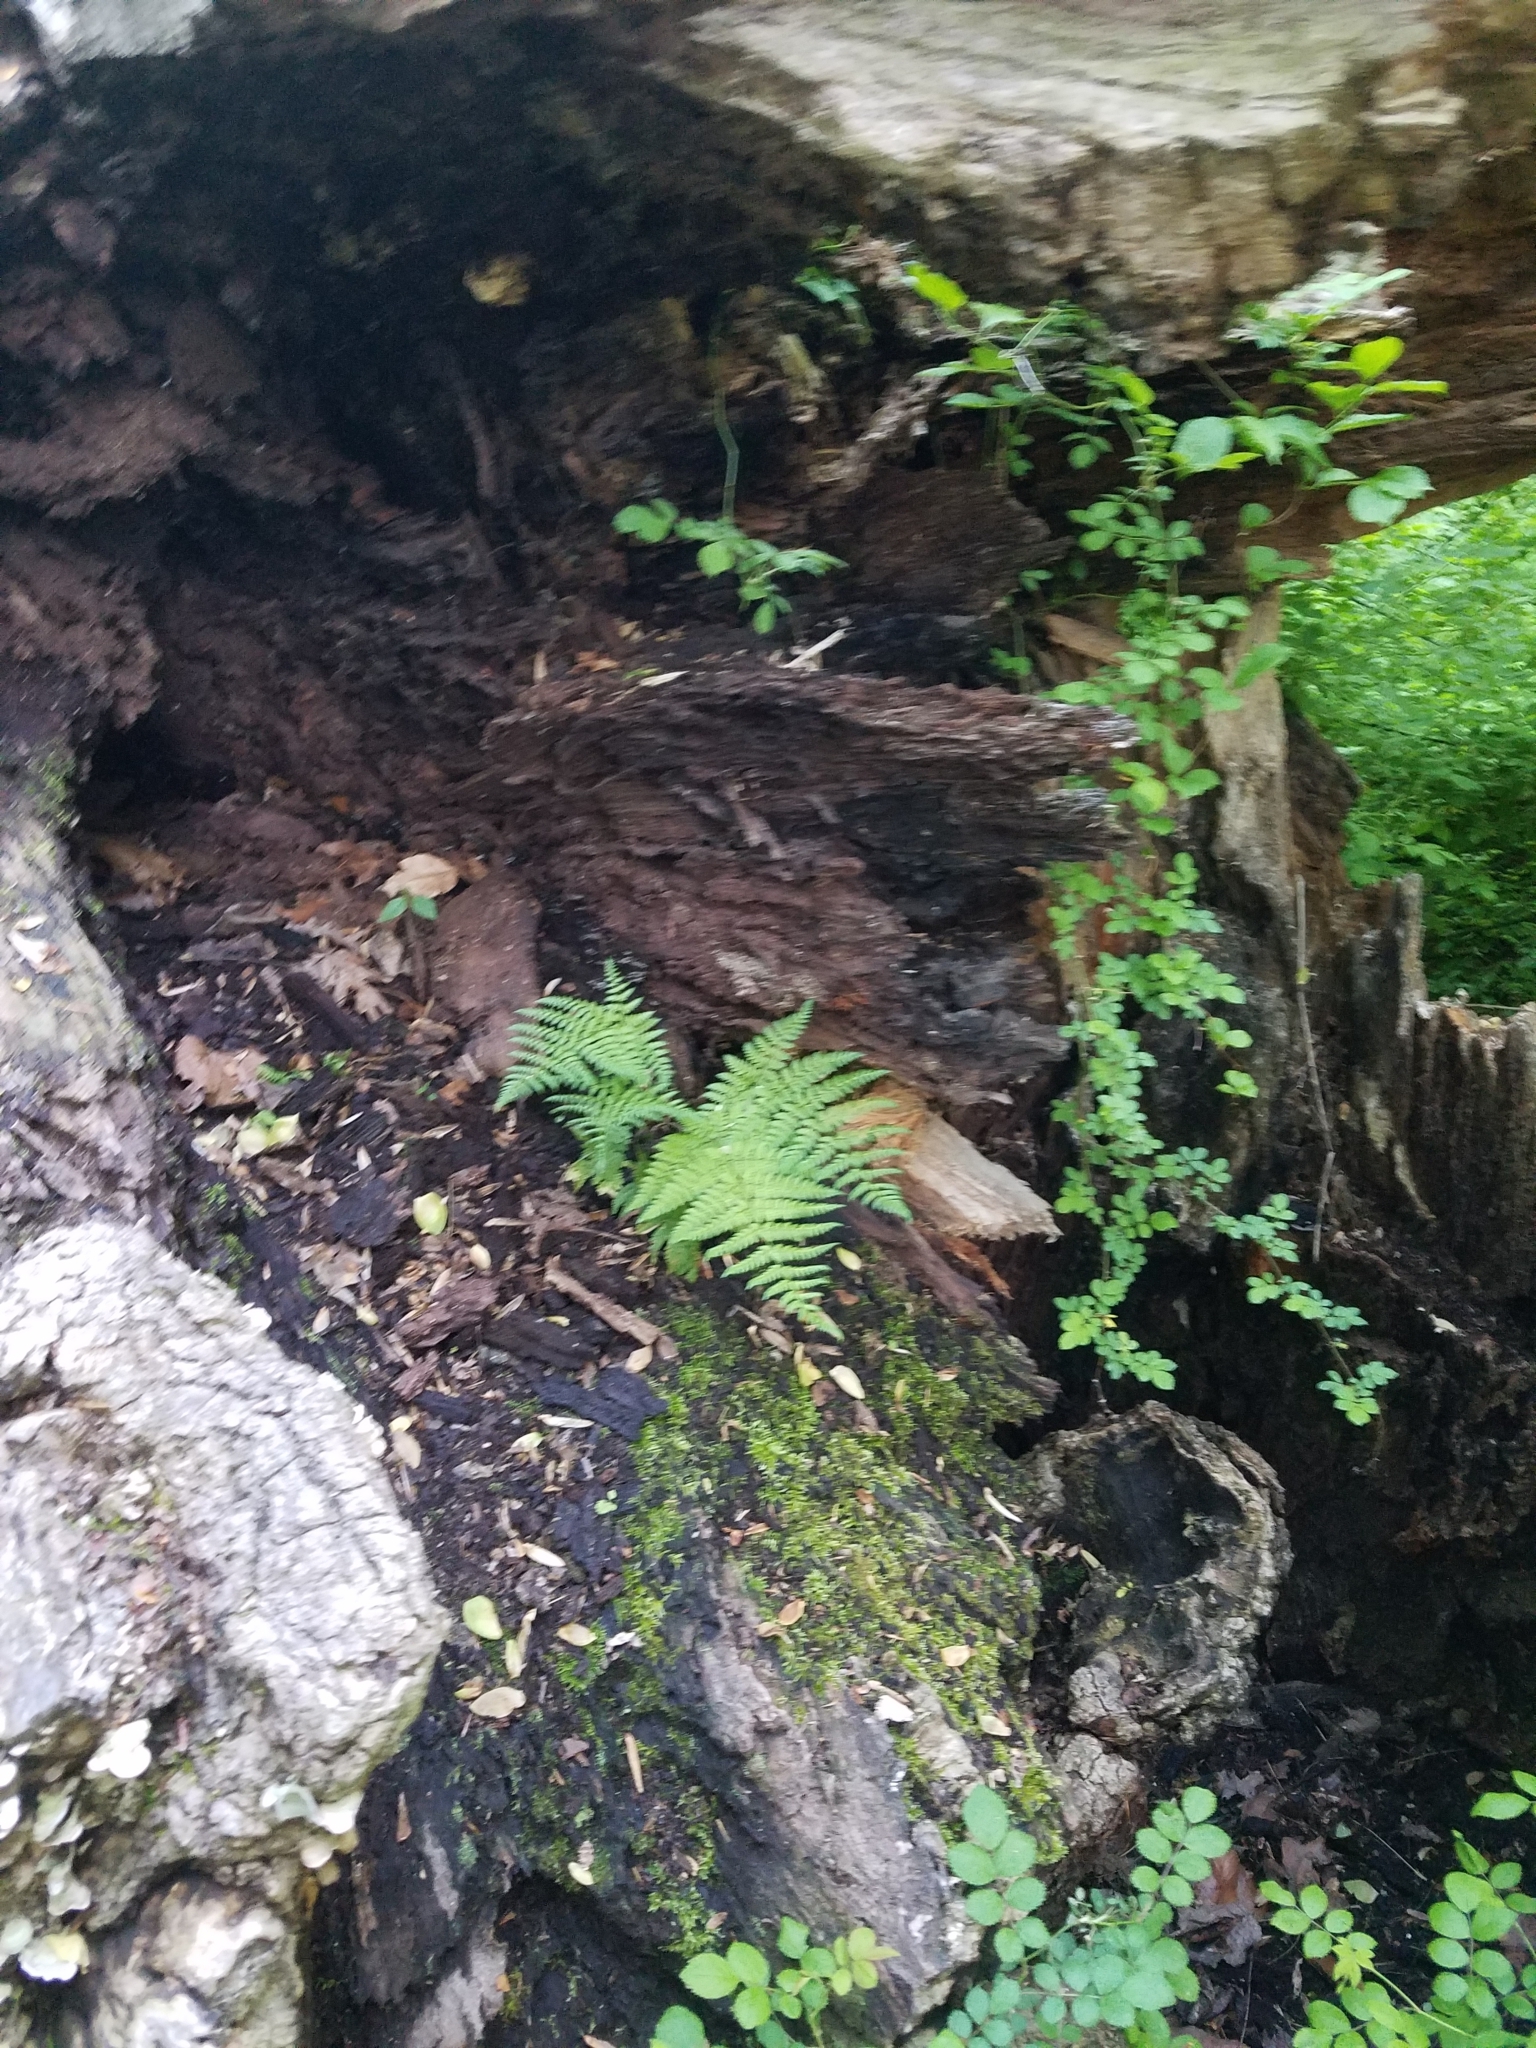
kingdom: Plantae
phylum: Tracheophyta
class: Polypodiopsida
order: Polypodiales
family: Athyriaceae
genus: Athyrium
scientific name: Athyrium asplenioides
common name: Southern lady fern
